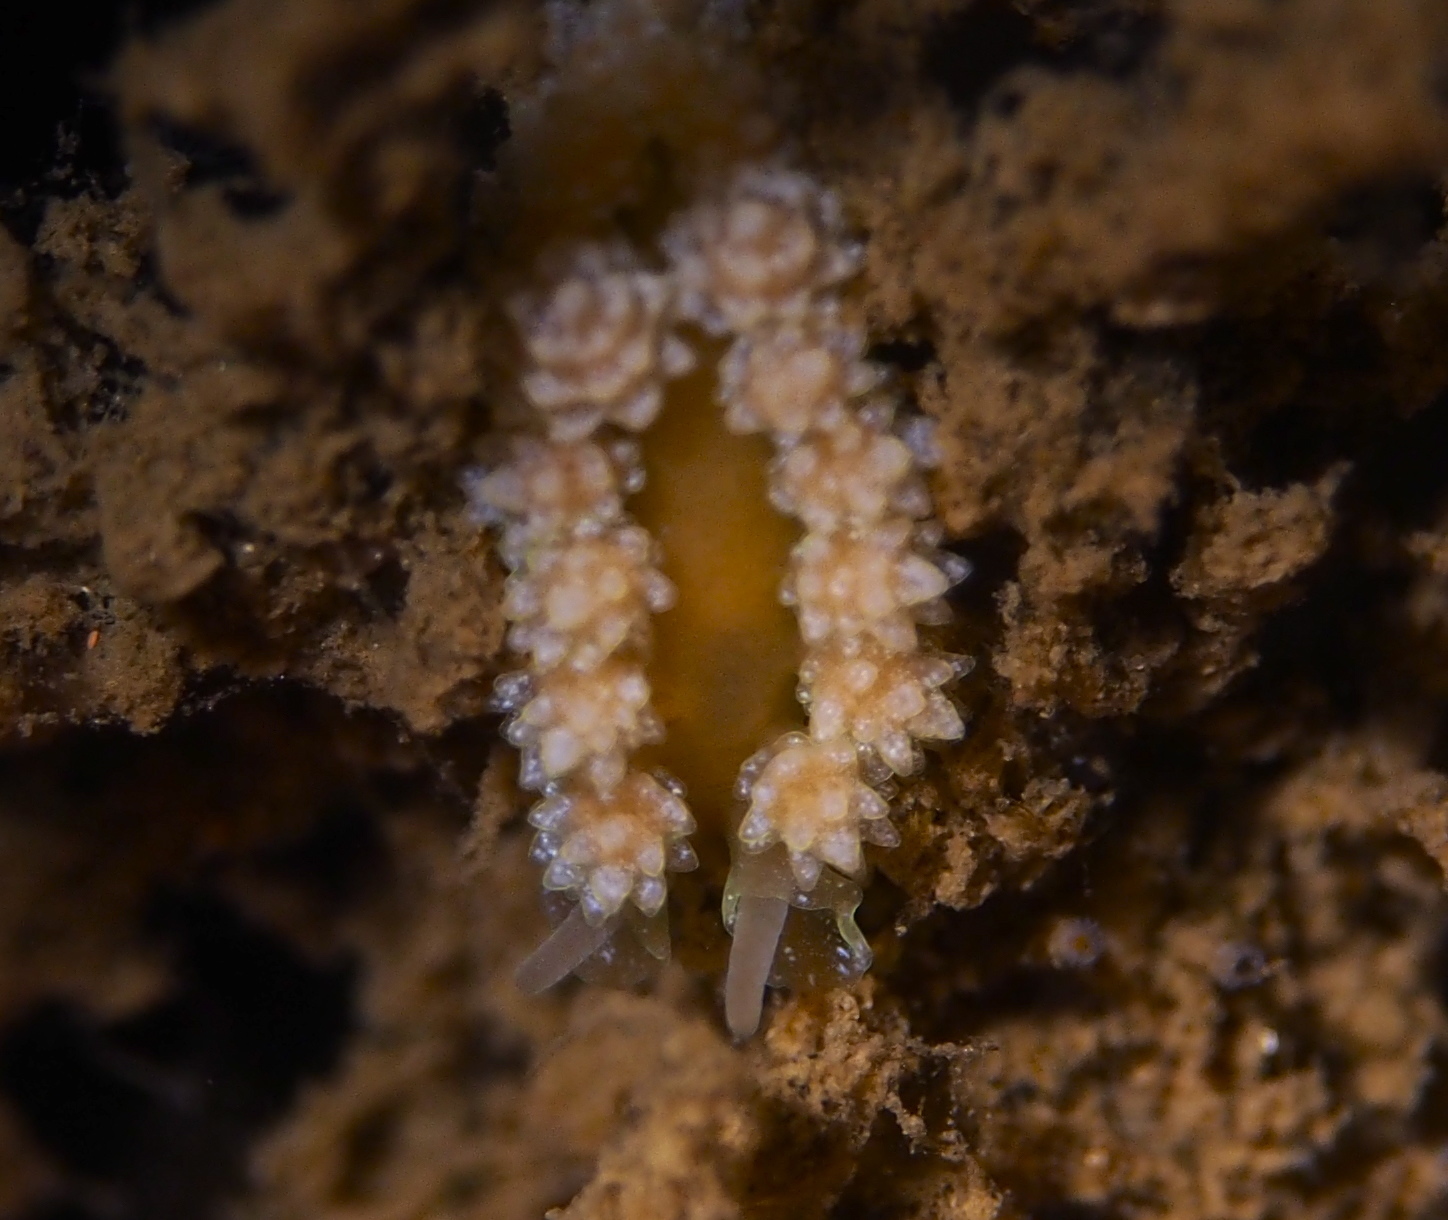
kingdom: Animalia
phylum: Mollusca
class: Gastropoda
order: Nudibranchia
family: Dotidae
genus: Doto
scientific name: Doto fragilis
